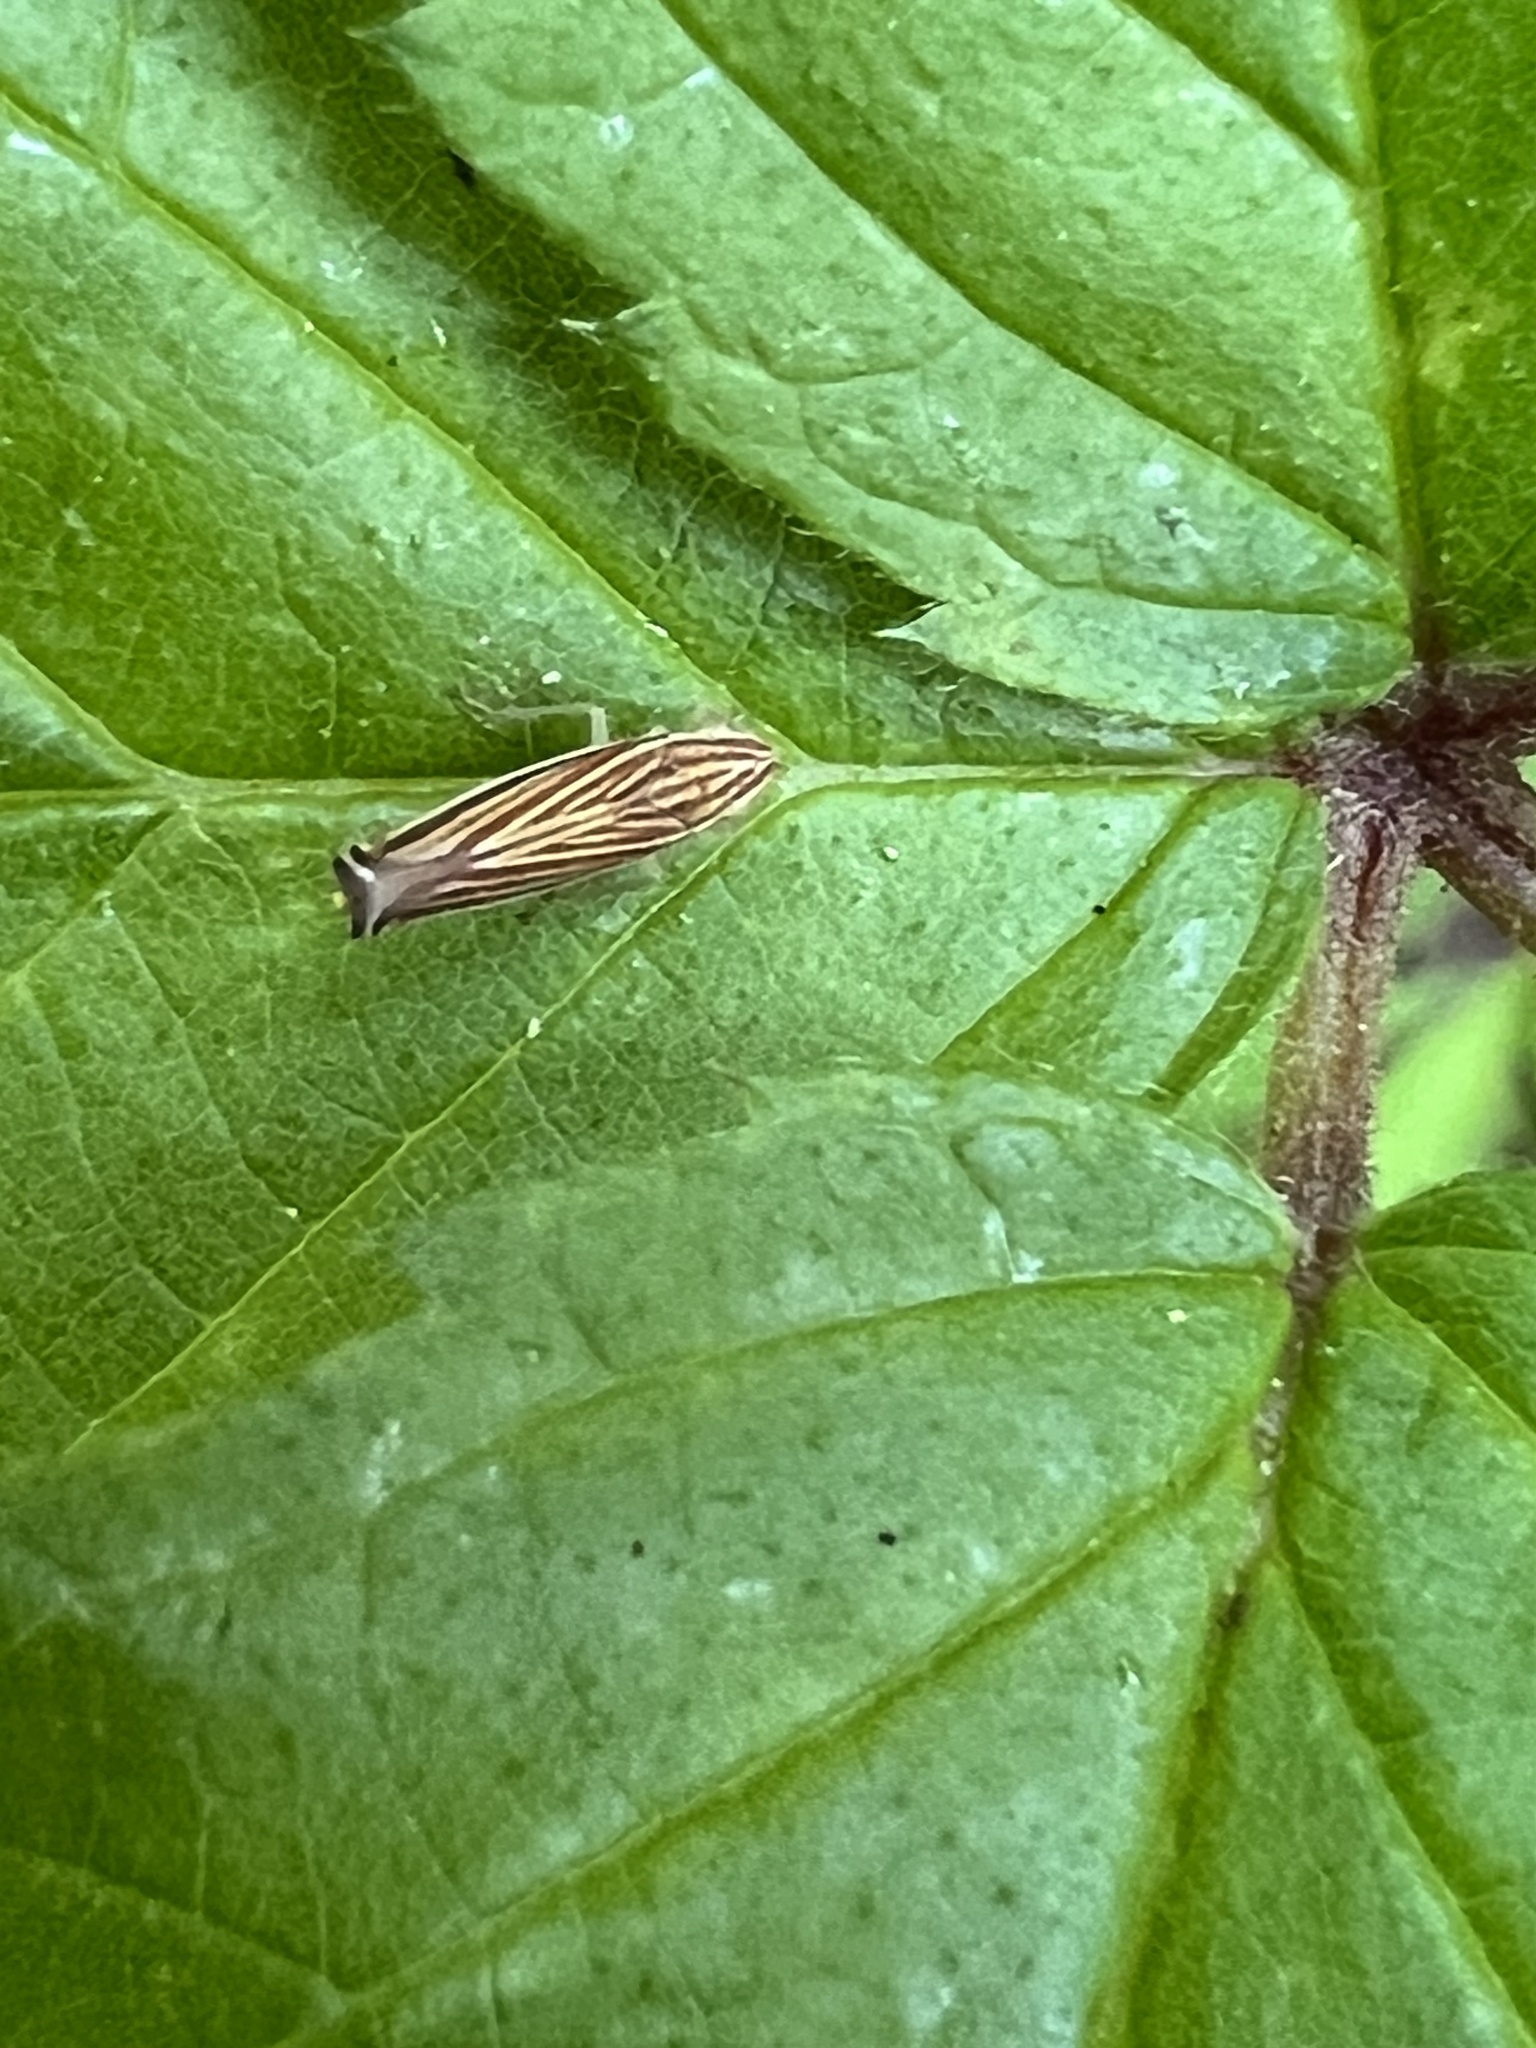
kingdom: Animalia
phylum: Arthropoda
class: Insecta
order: Hemiptera
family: Cicadellidae
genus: Sibovia
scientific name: Sibovia occatoria
